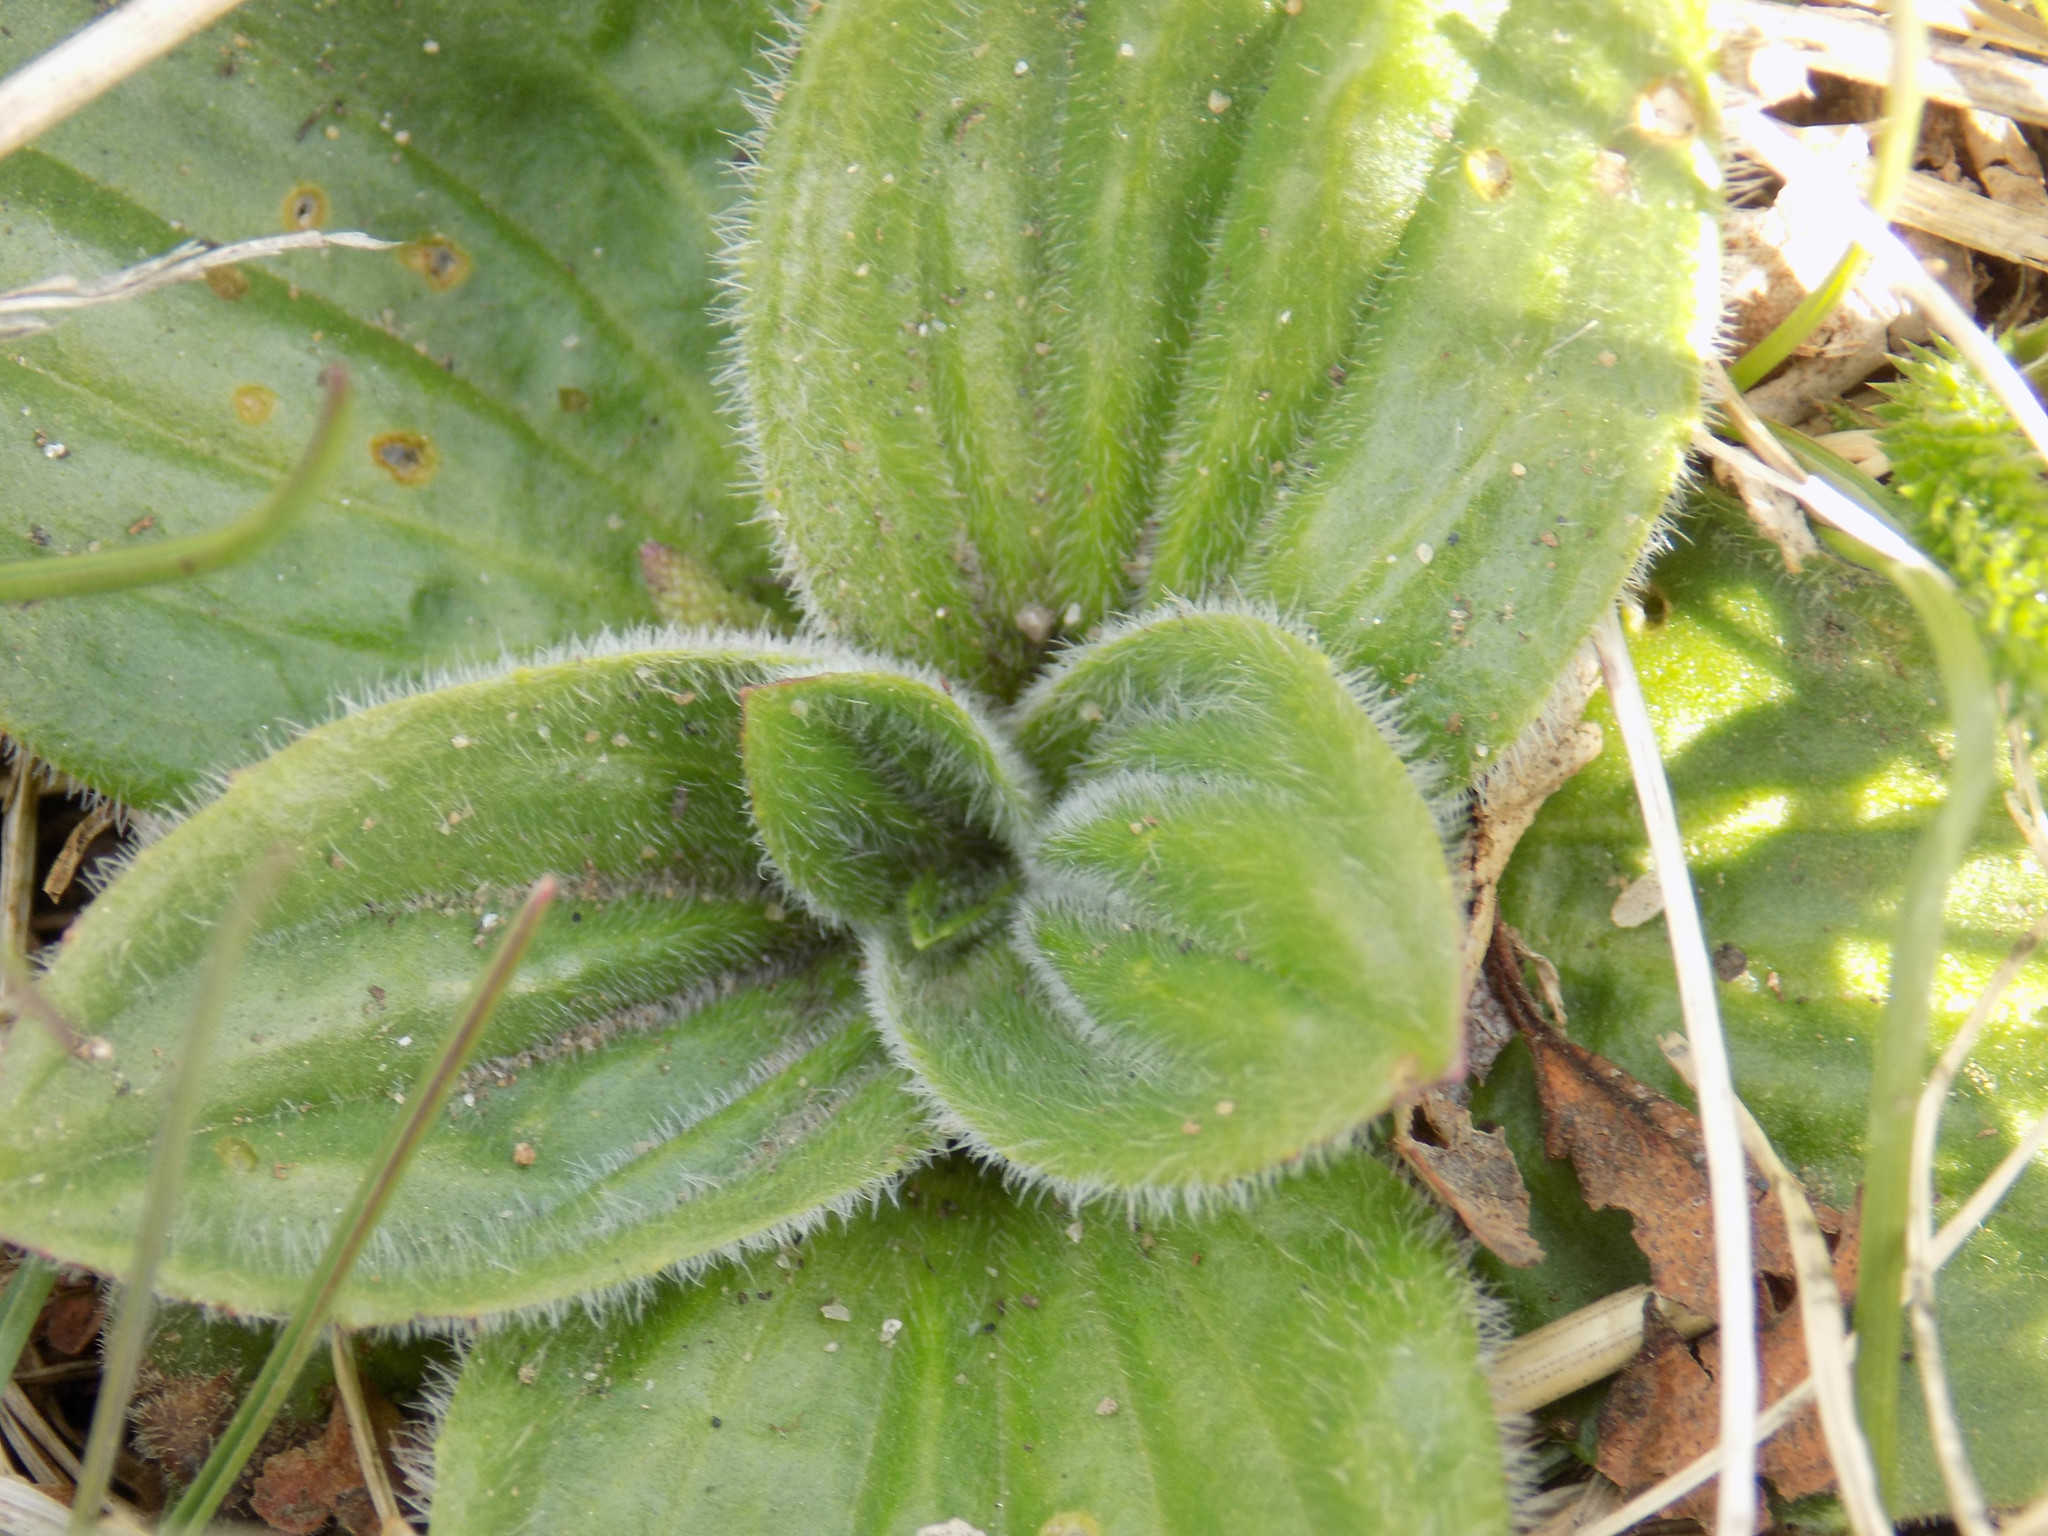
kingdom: Plantae
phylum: Tracheophyta
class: Magnoliopsida
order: Lamiales
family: Plantaginaceae
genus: Plantago
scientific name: Plantago media
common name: Hoary plantain
